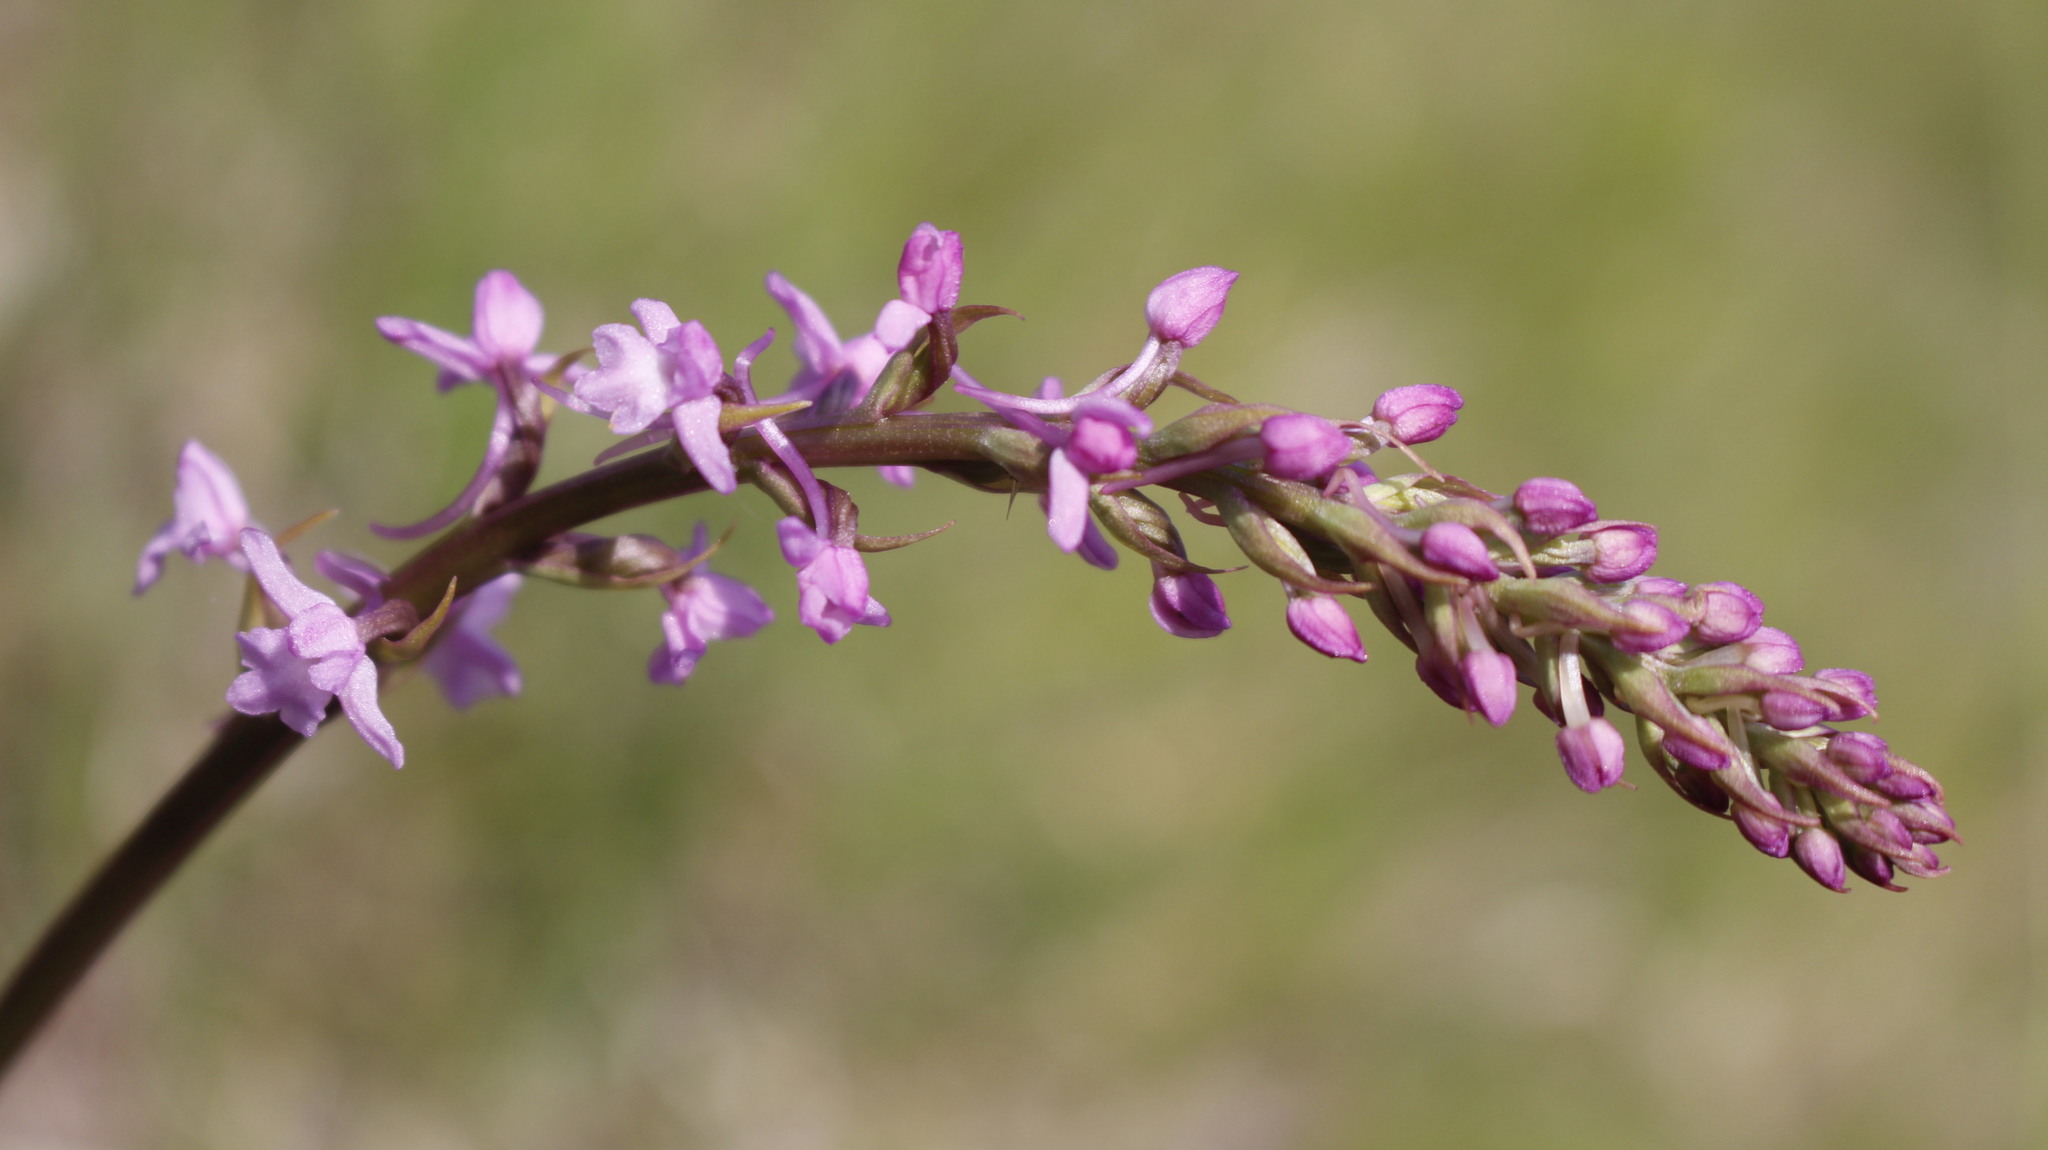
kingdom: Plantae
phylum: Tracheophyta
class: Liliopsida
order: Asparagales
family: Orchidaceae
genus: Gymnadenia
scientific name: Gymnadenia conopsea
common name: Fragrant orchid
